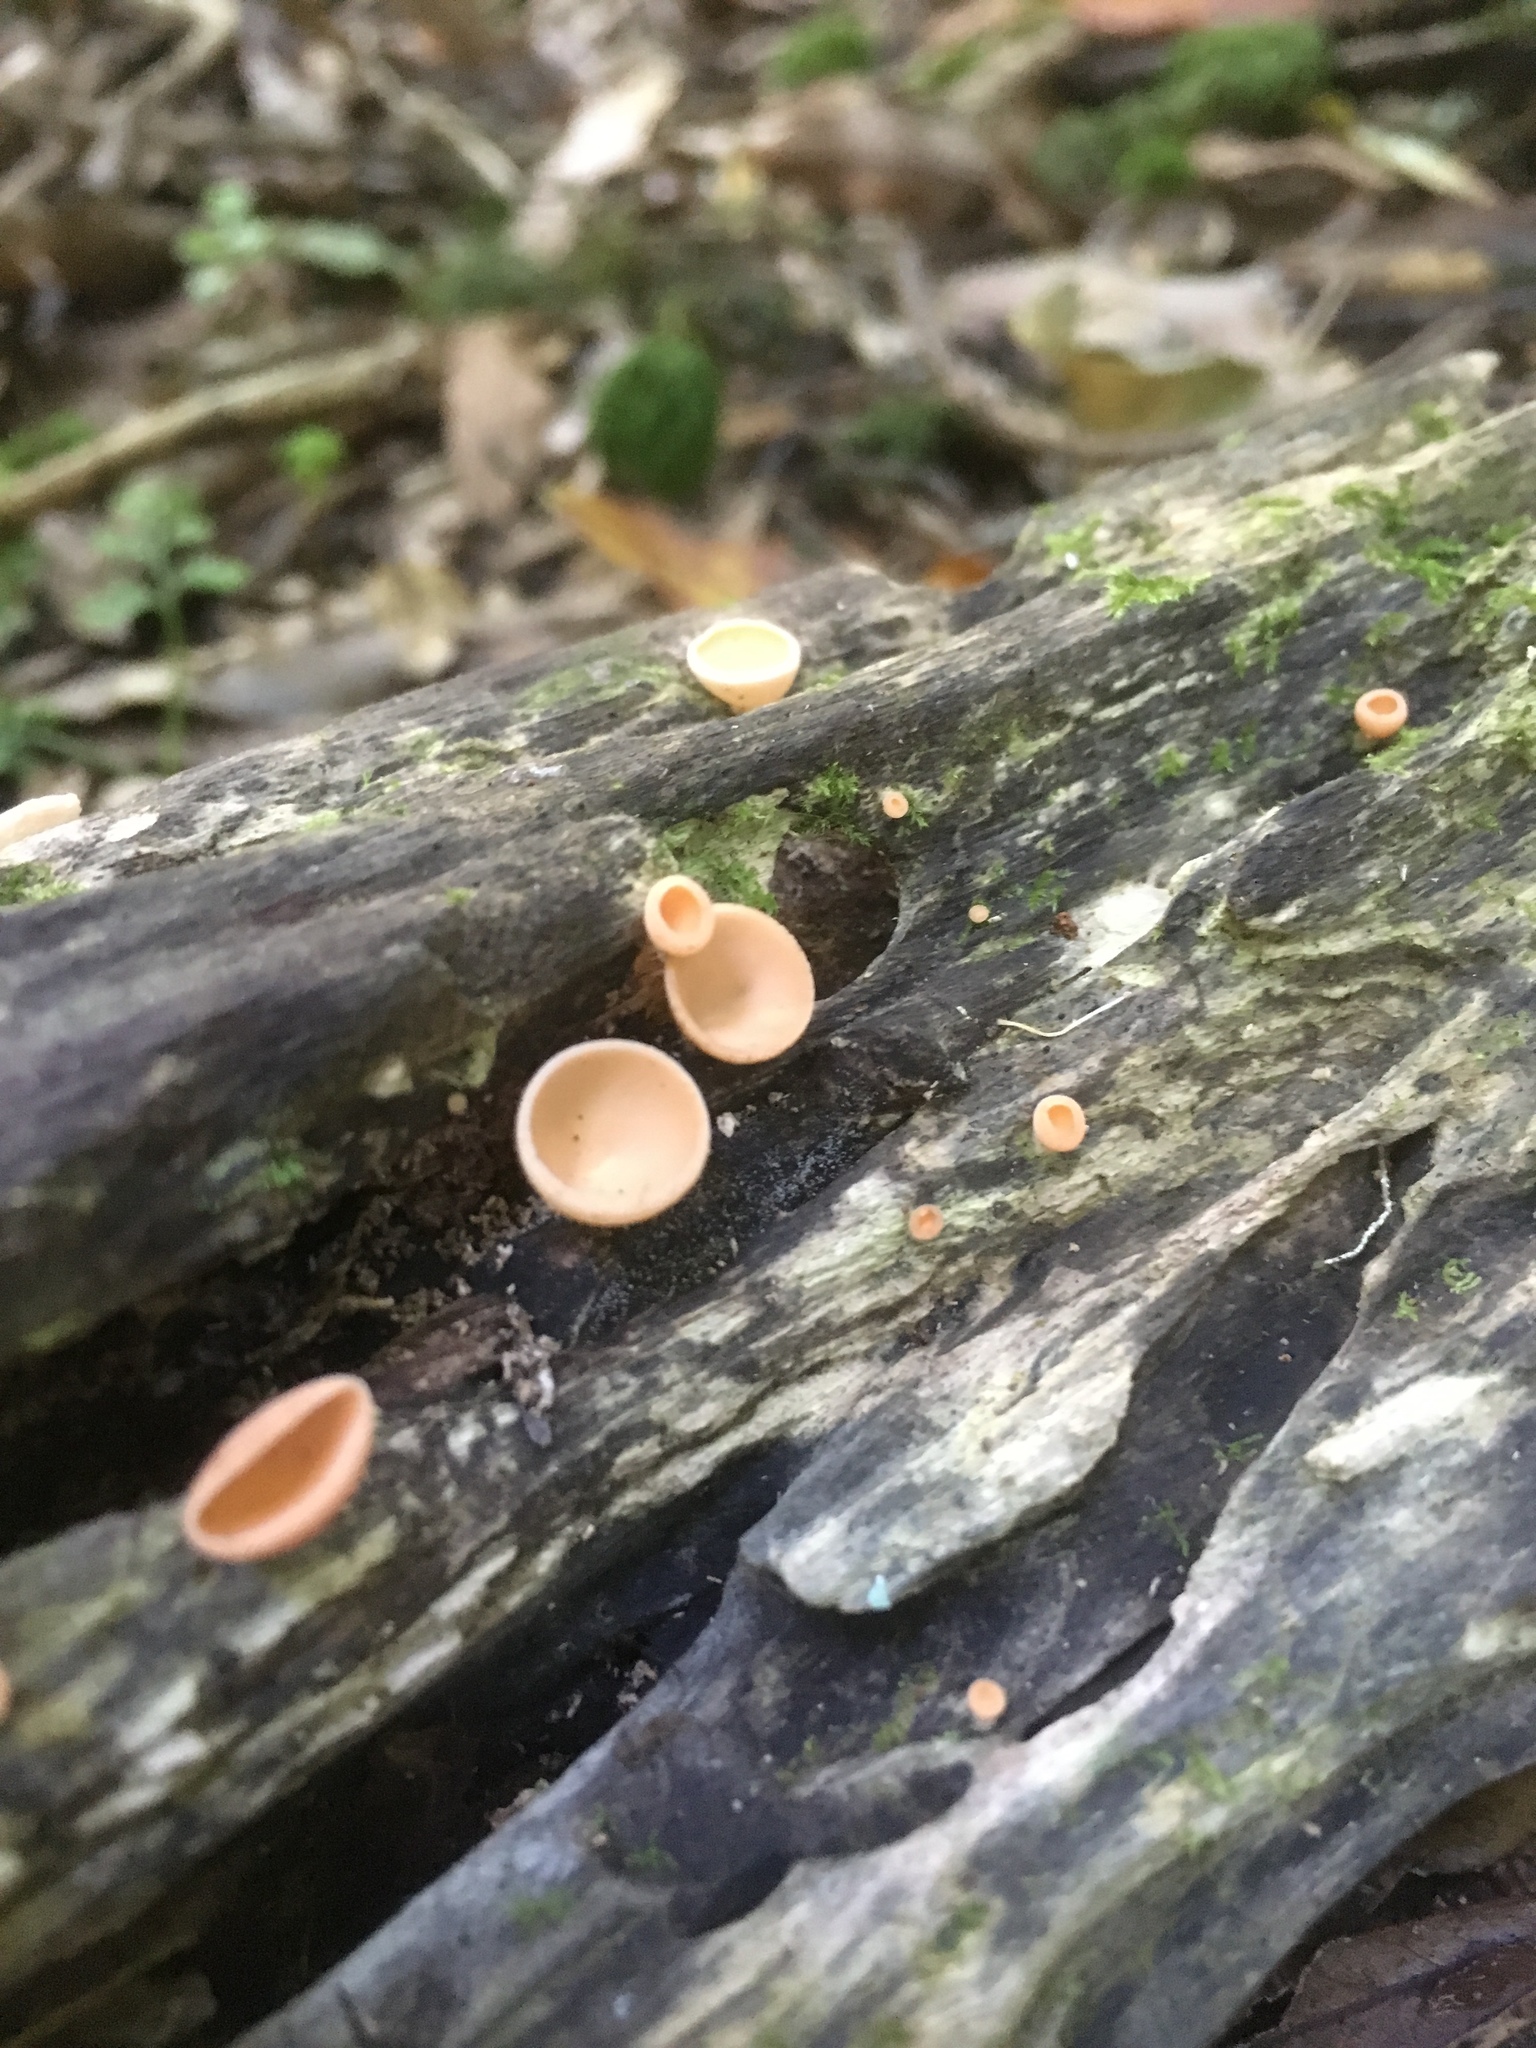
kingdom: Fungi
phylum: Ascomycota
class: Pezizomycetes
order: Pezizales
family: Sarcoscyphaceae
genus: Cookeina
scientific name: Cookeina colensoi
